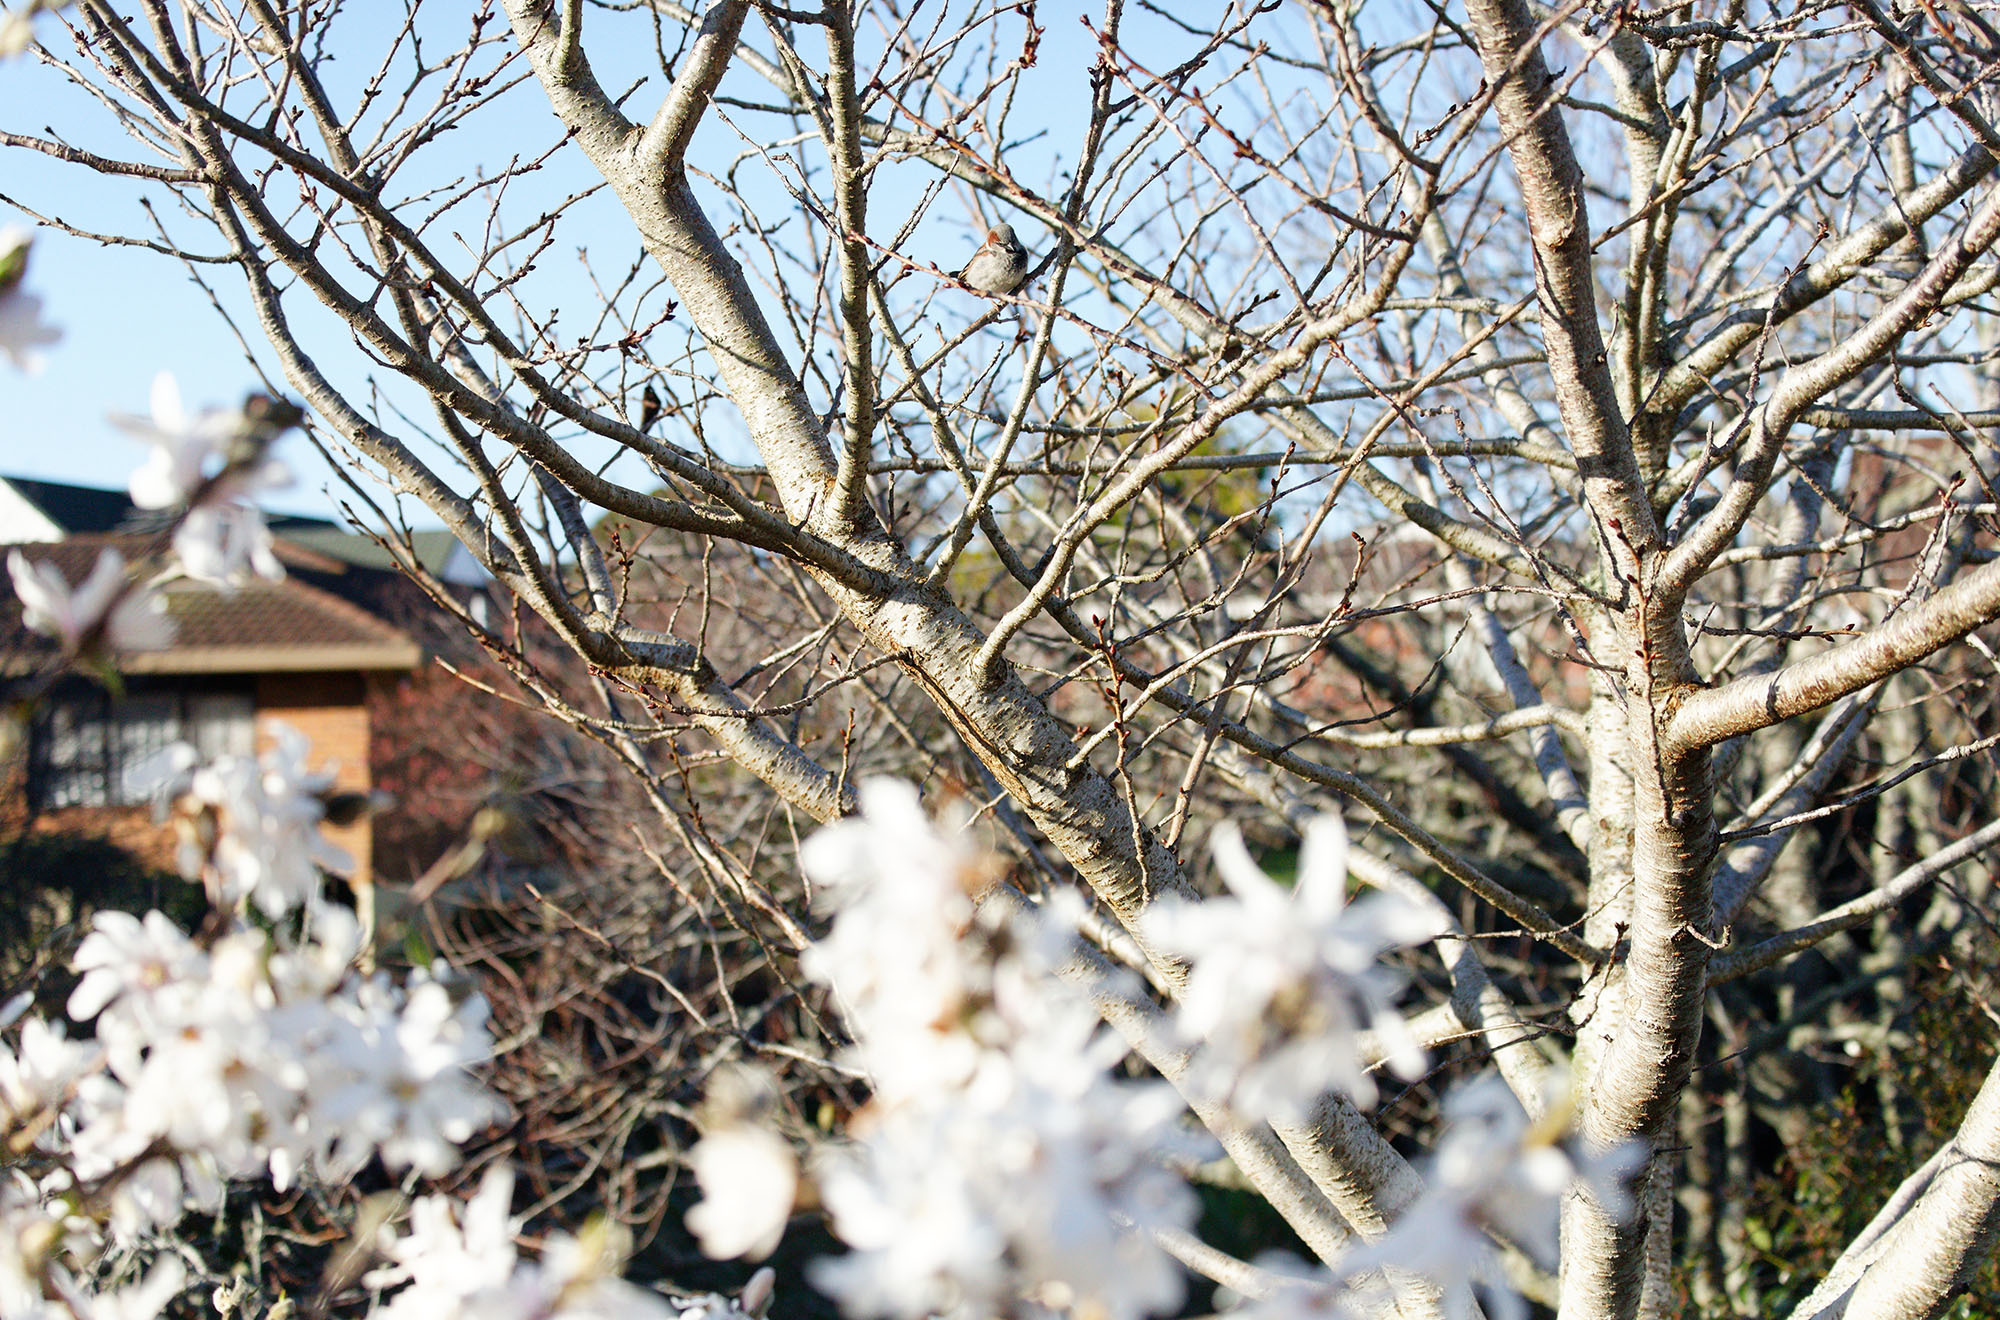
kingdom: Animalia
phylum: Chordata
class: Aves
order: Passeriformes
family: Passeridae
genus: Passer
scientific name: Passer domesticus
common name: House sparrow
